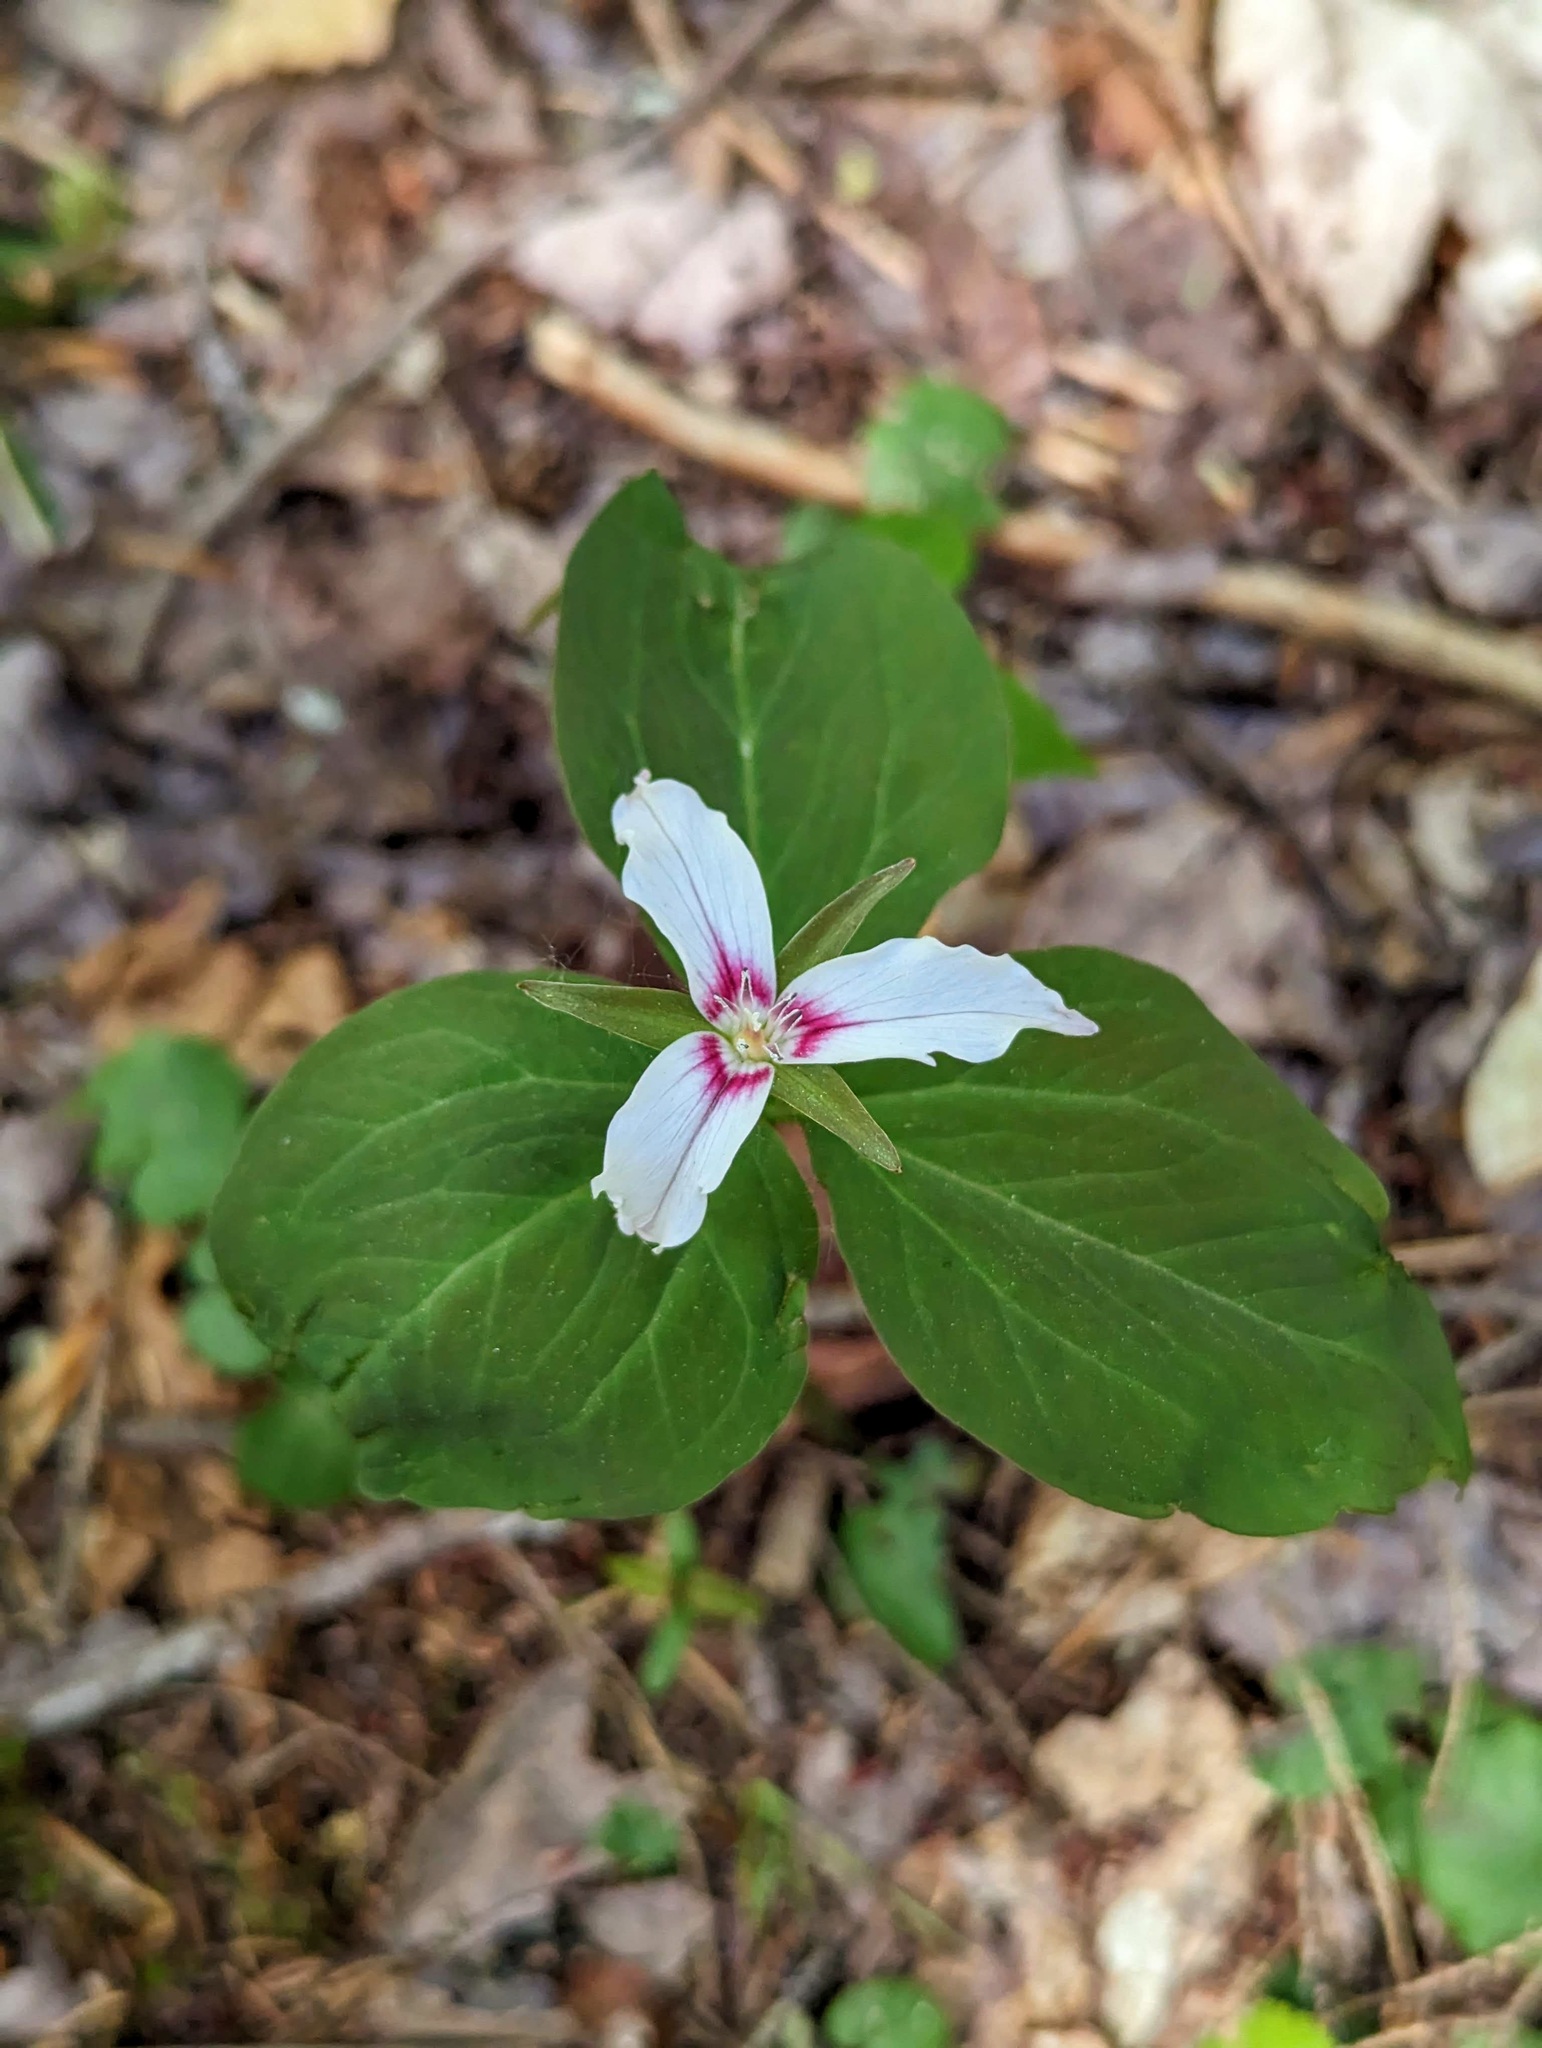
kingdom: Plantae
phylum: Tracheophyta
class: Liliopsida
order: Liliales
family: Melanthiaceae
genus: Trillium
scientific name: Trillium undulatum
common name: Paint trillium
